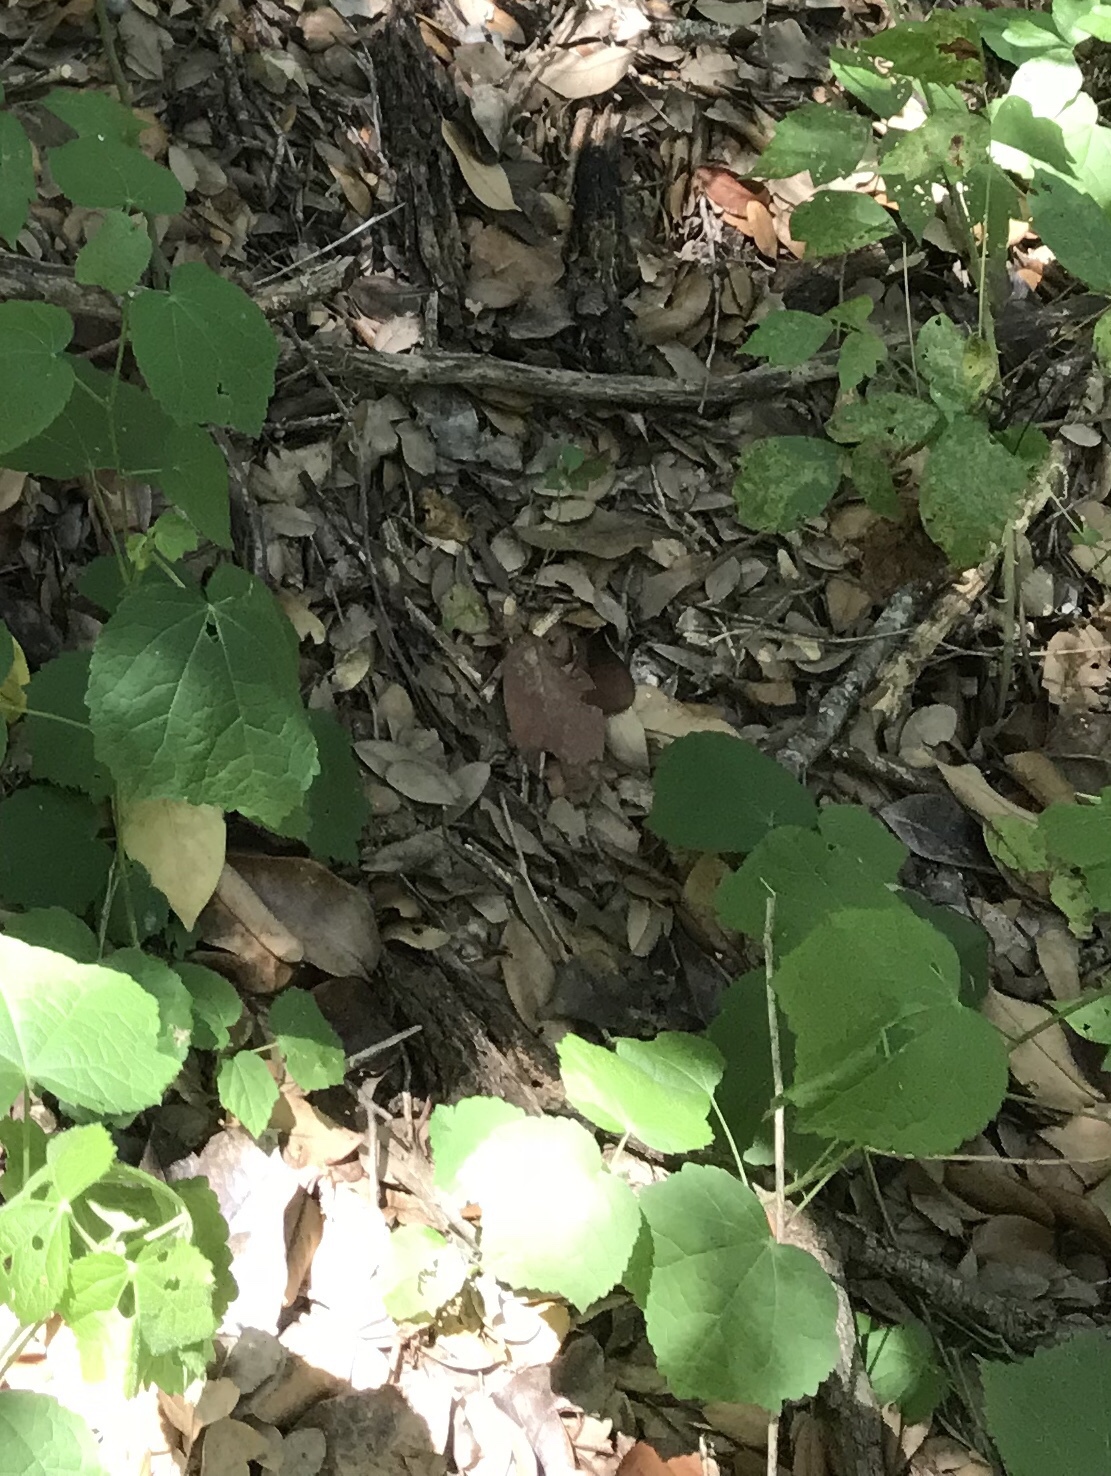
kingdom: Plantae
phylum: Tracheophyta
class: Magnoliopsida
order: Malvales
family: Malvaceae
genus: Malvaviscus
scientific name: Malvaviscus arboreus
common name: Wax mallow
